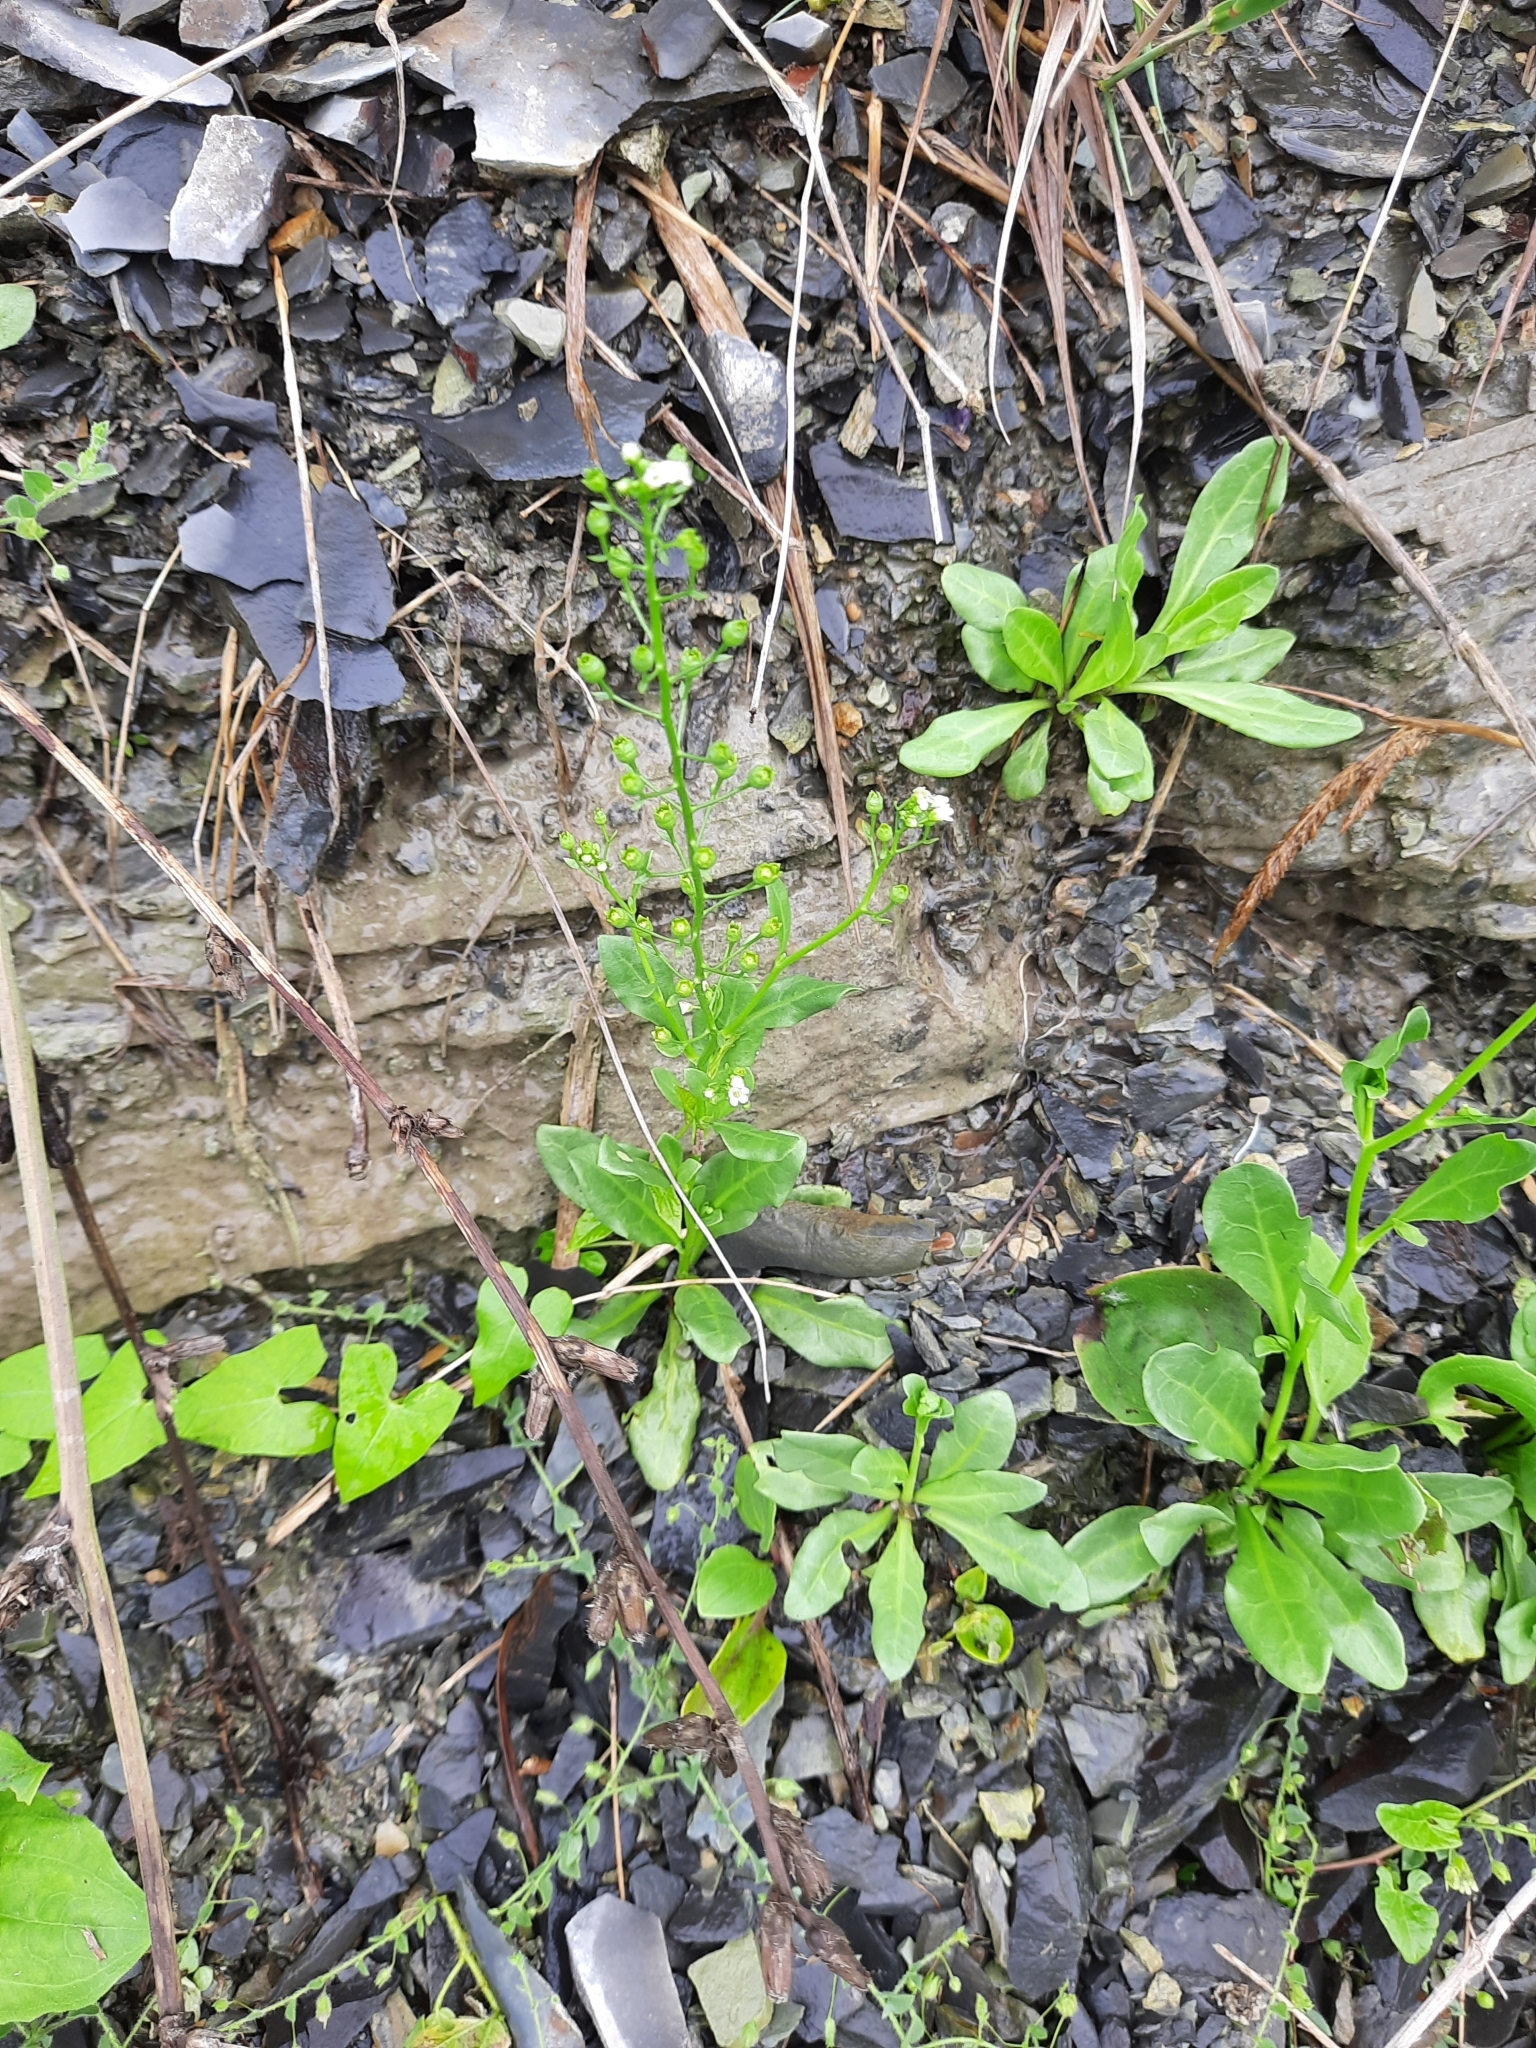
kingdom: Plantae
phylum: Tracheophyta
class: Magnoliopsida
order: Ericales
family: Primulaceae
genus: Samolus
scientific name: Samolus valerandi
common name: Brookweed
